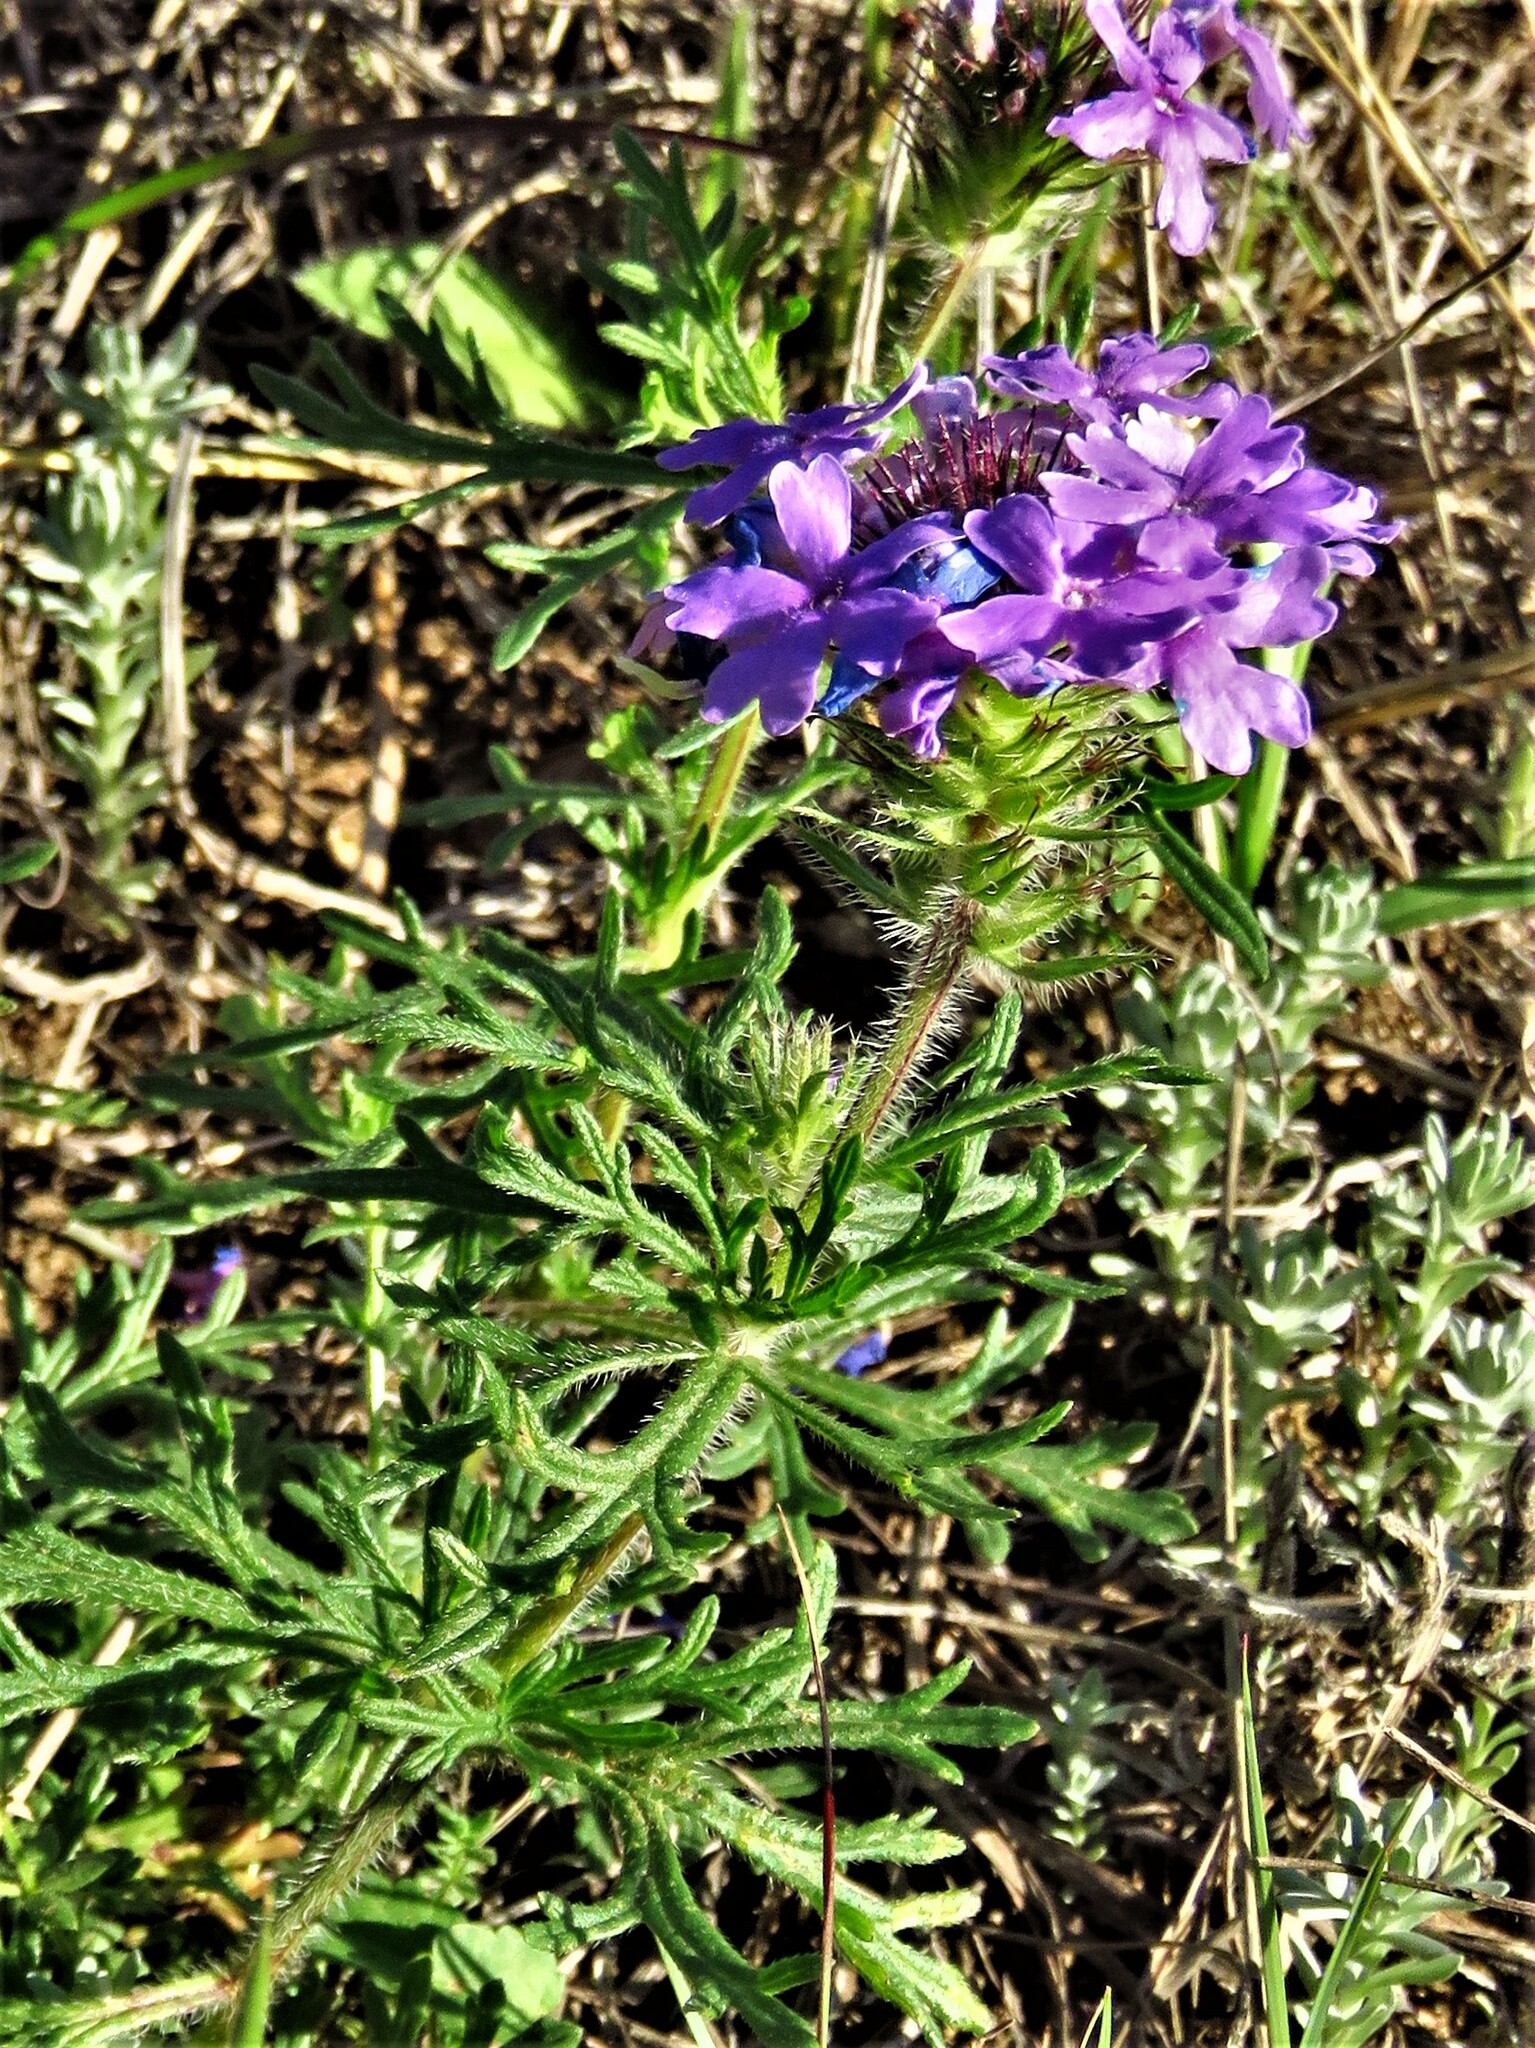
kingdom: Plantae
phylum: Tracheophyta
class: Magnoliopsida
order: Lamiales
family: Verbenaceae
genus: Verbena
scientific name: Verbena bipinnatifida
